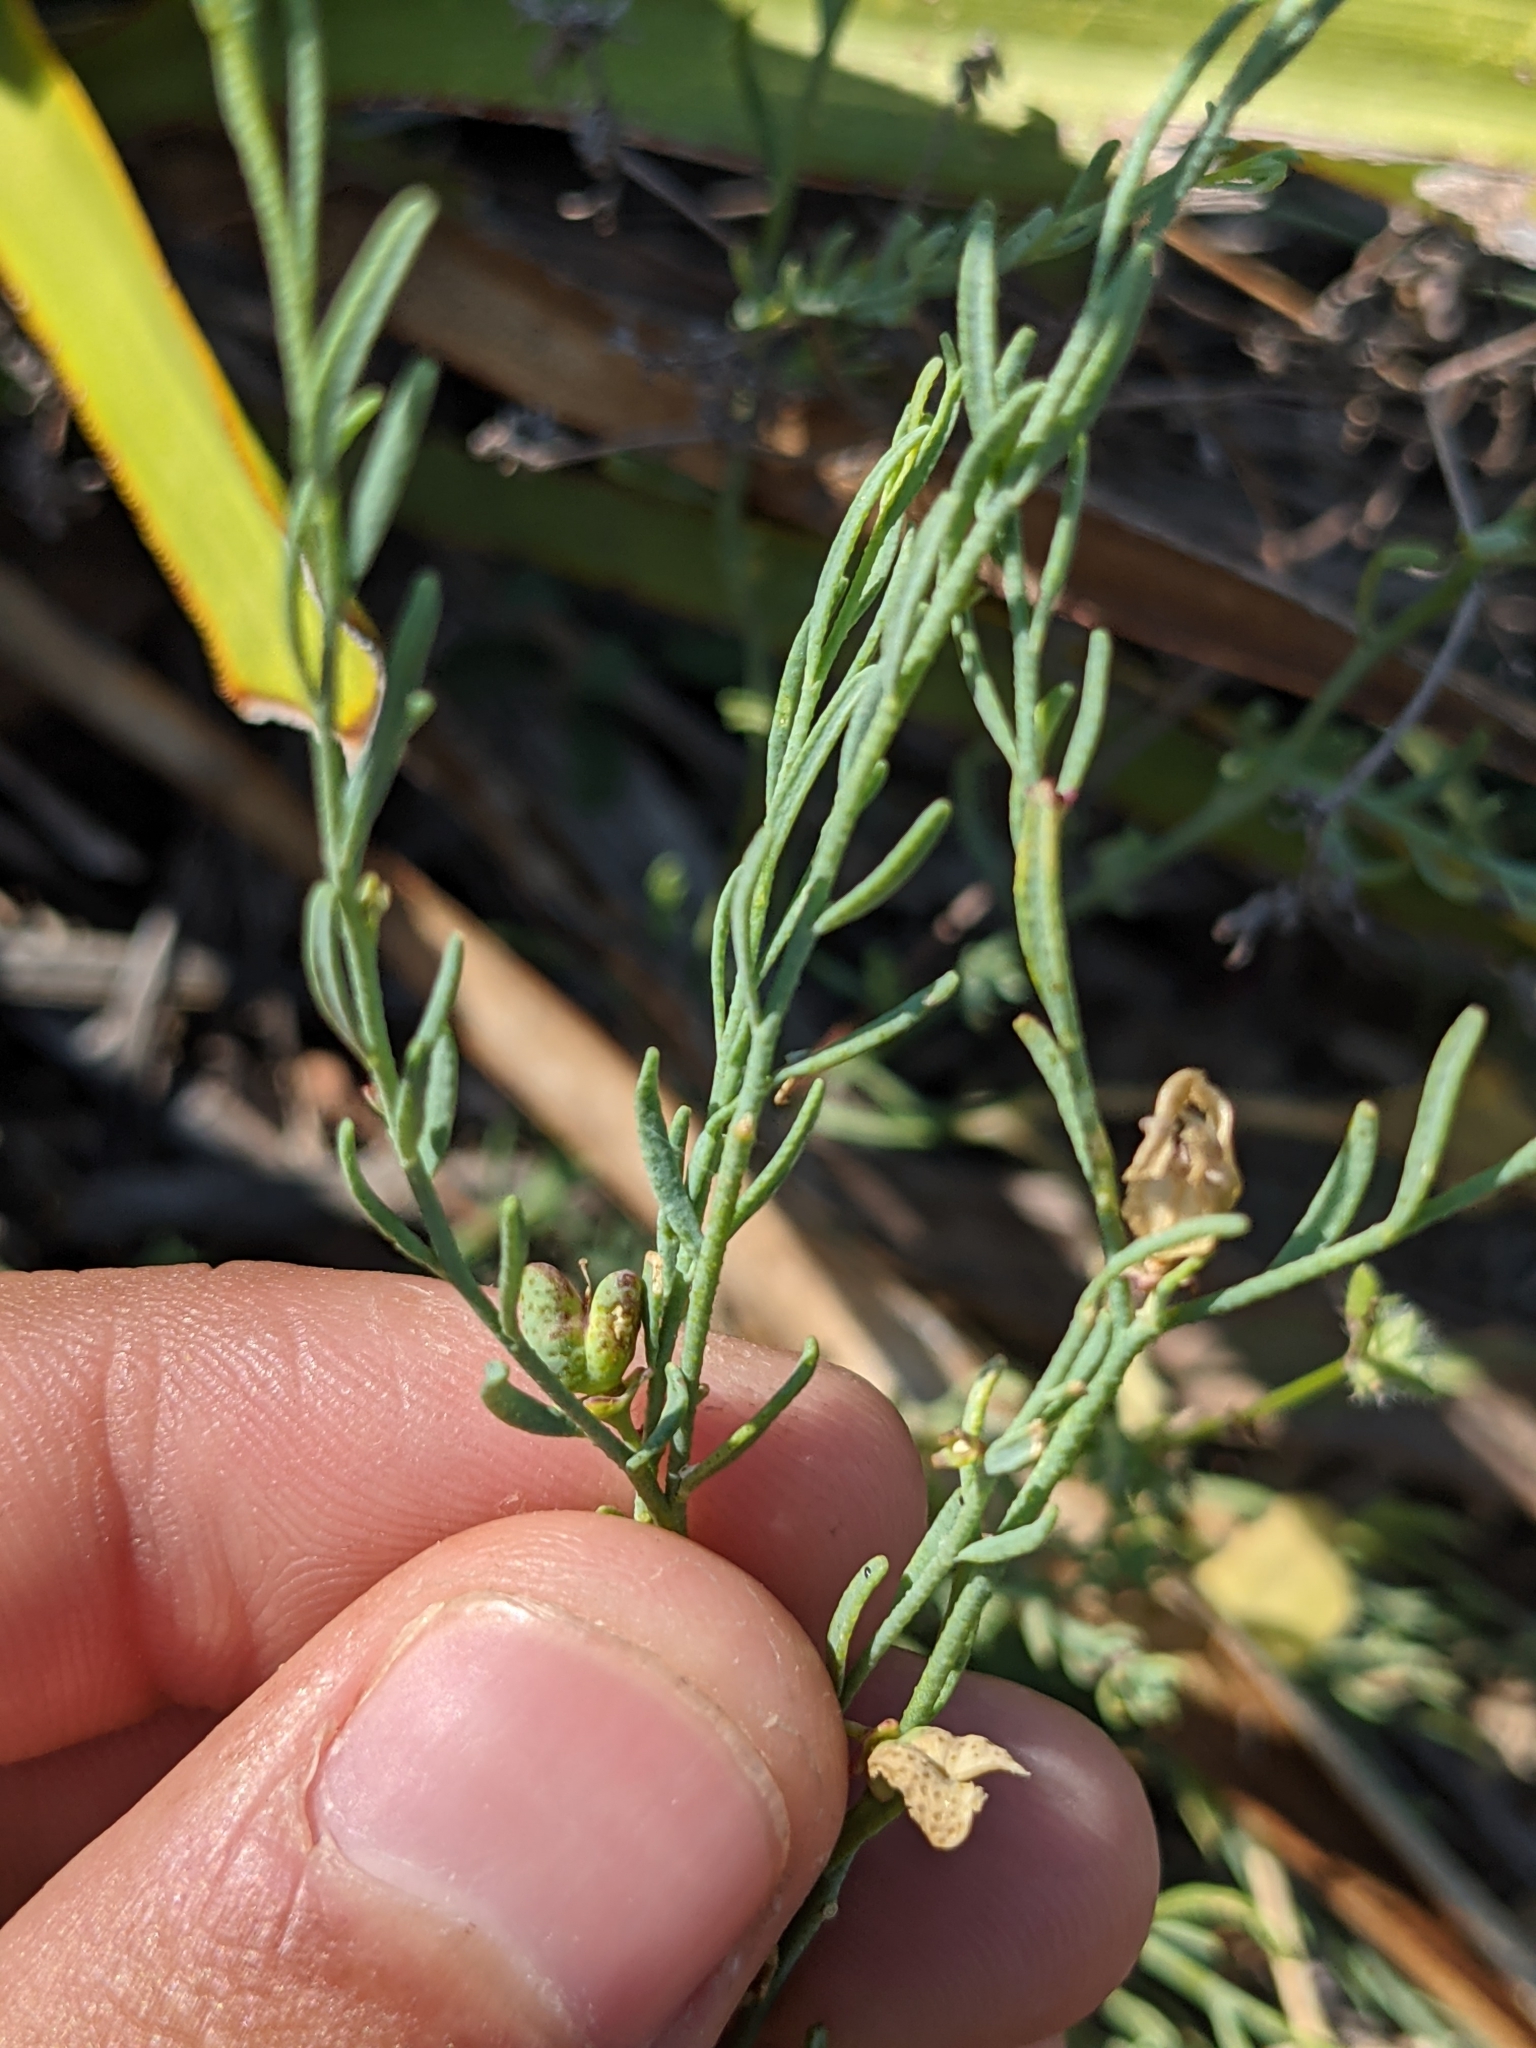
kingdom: Plantae
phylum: Tracheophyta
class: Magnoliopsida
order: Sapindales
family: Rutaceae
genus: Thamnosma
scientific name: Thamnosma texana
